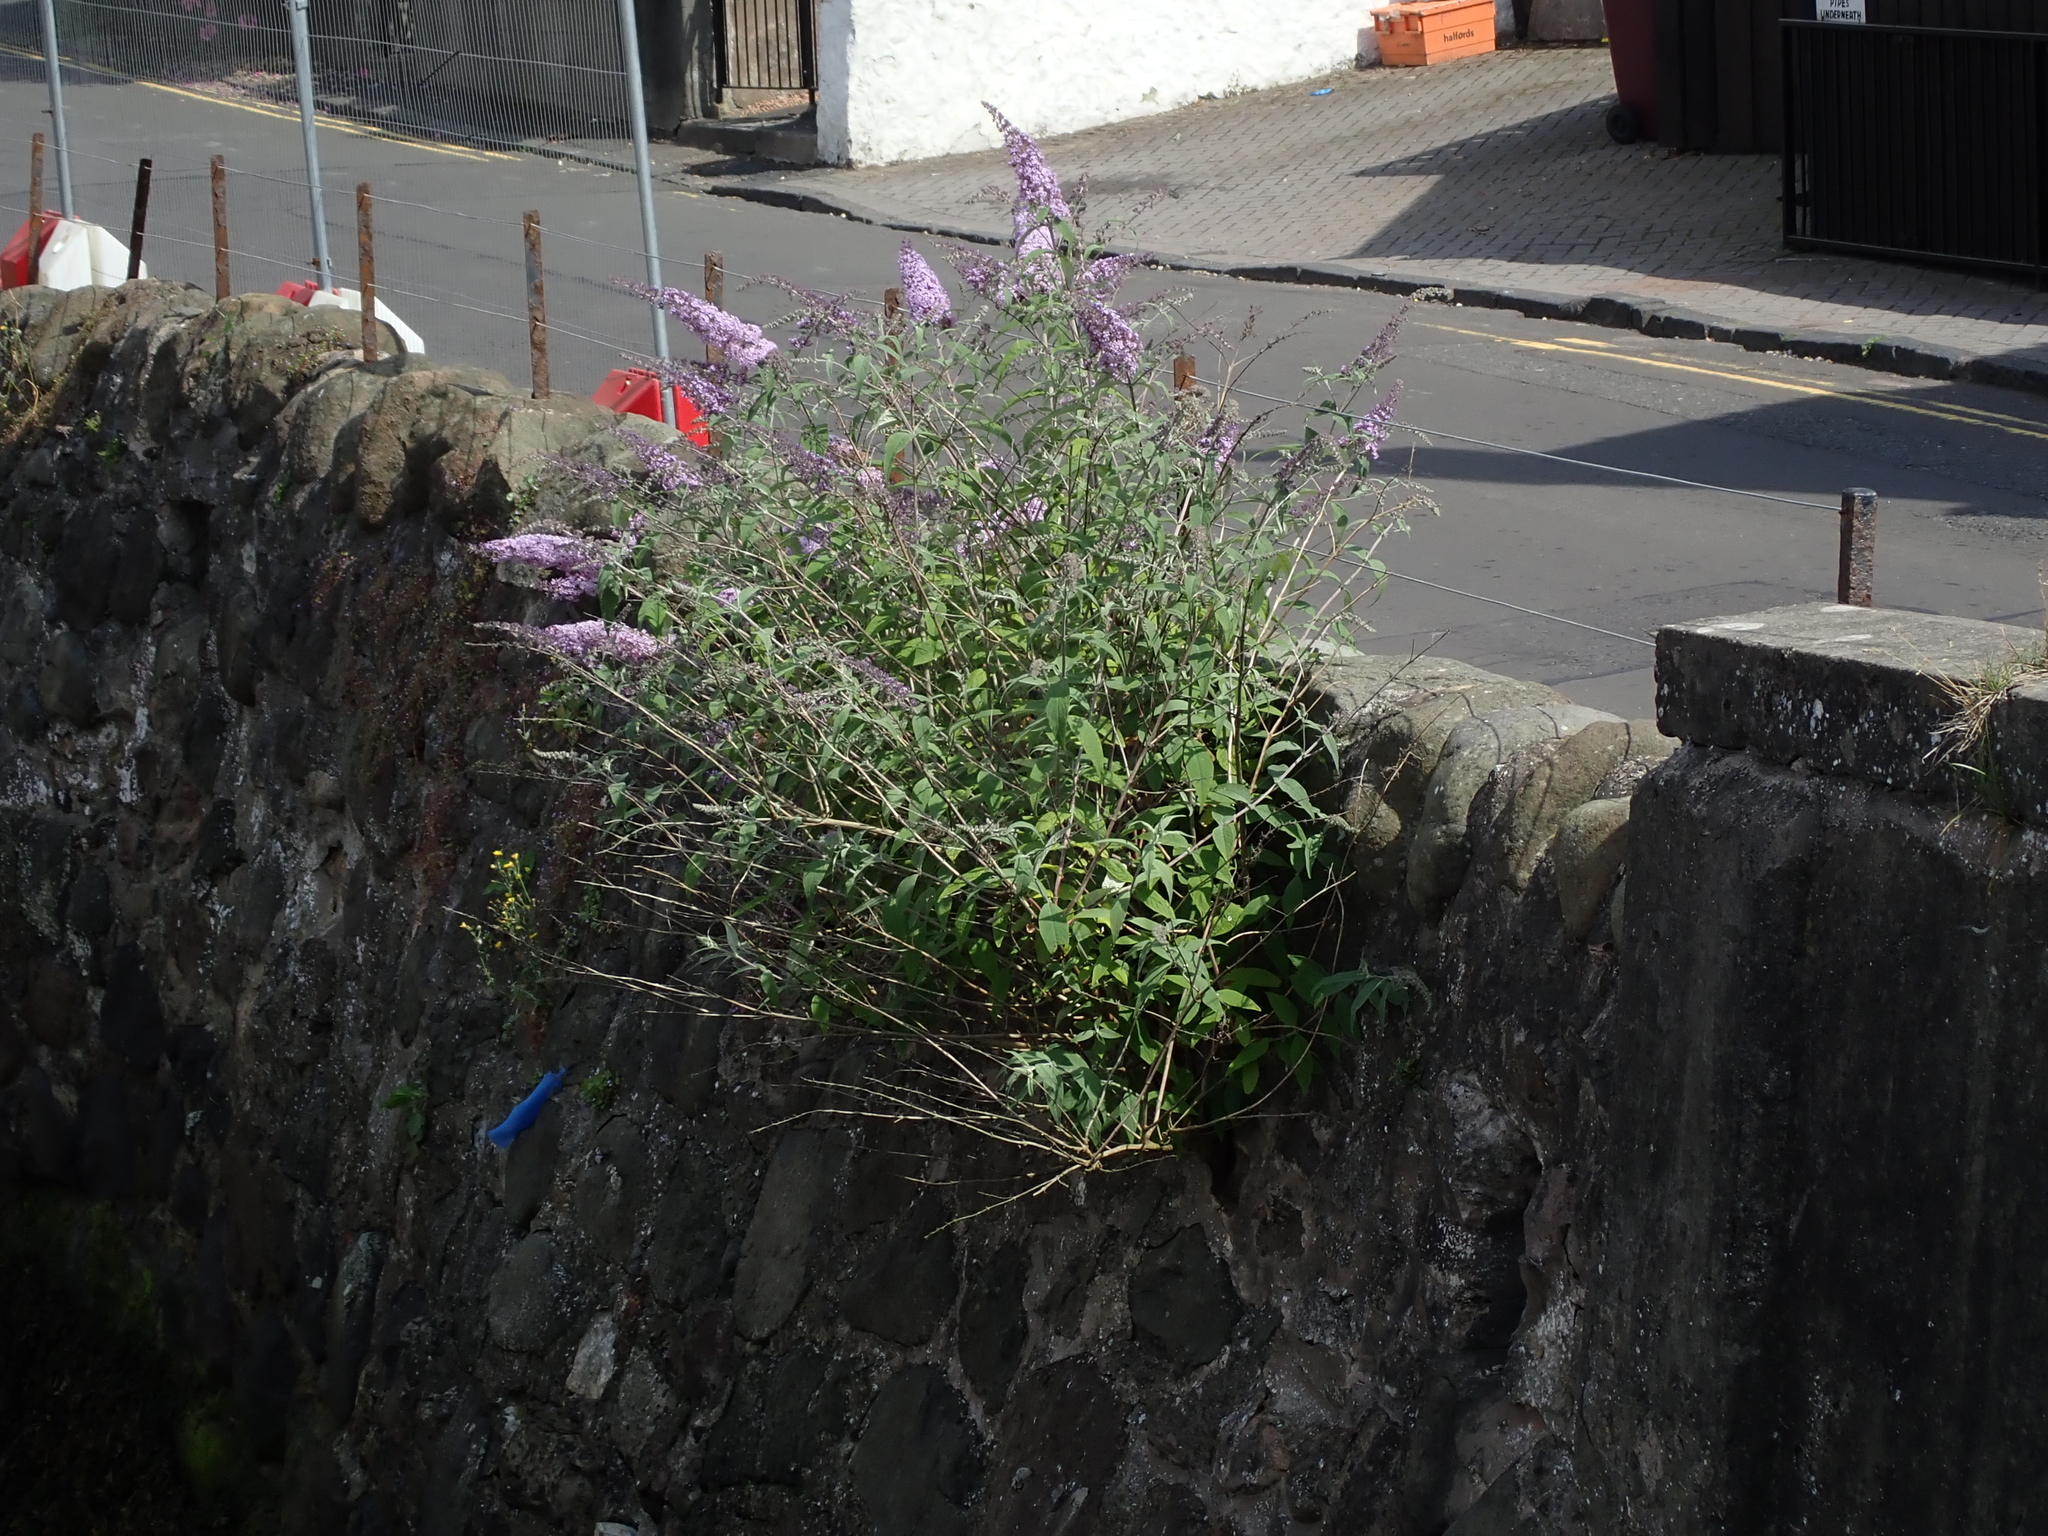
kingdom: Plantae
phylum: Tracheophyta
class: Magnoliopsida
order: Lamiales
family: Scrophulariaceae
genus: Buddleja
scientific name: Buddleja davidii
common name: Butterfly-bush
